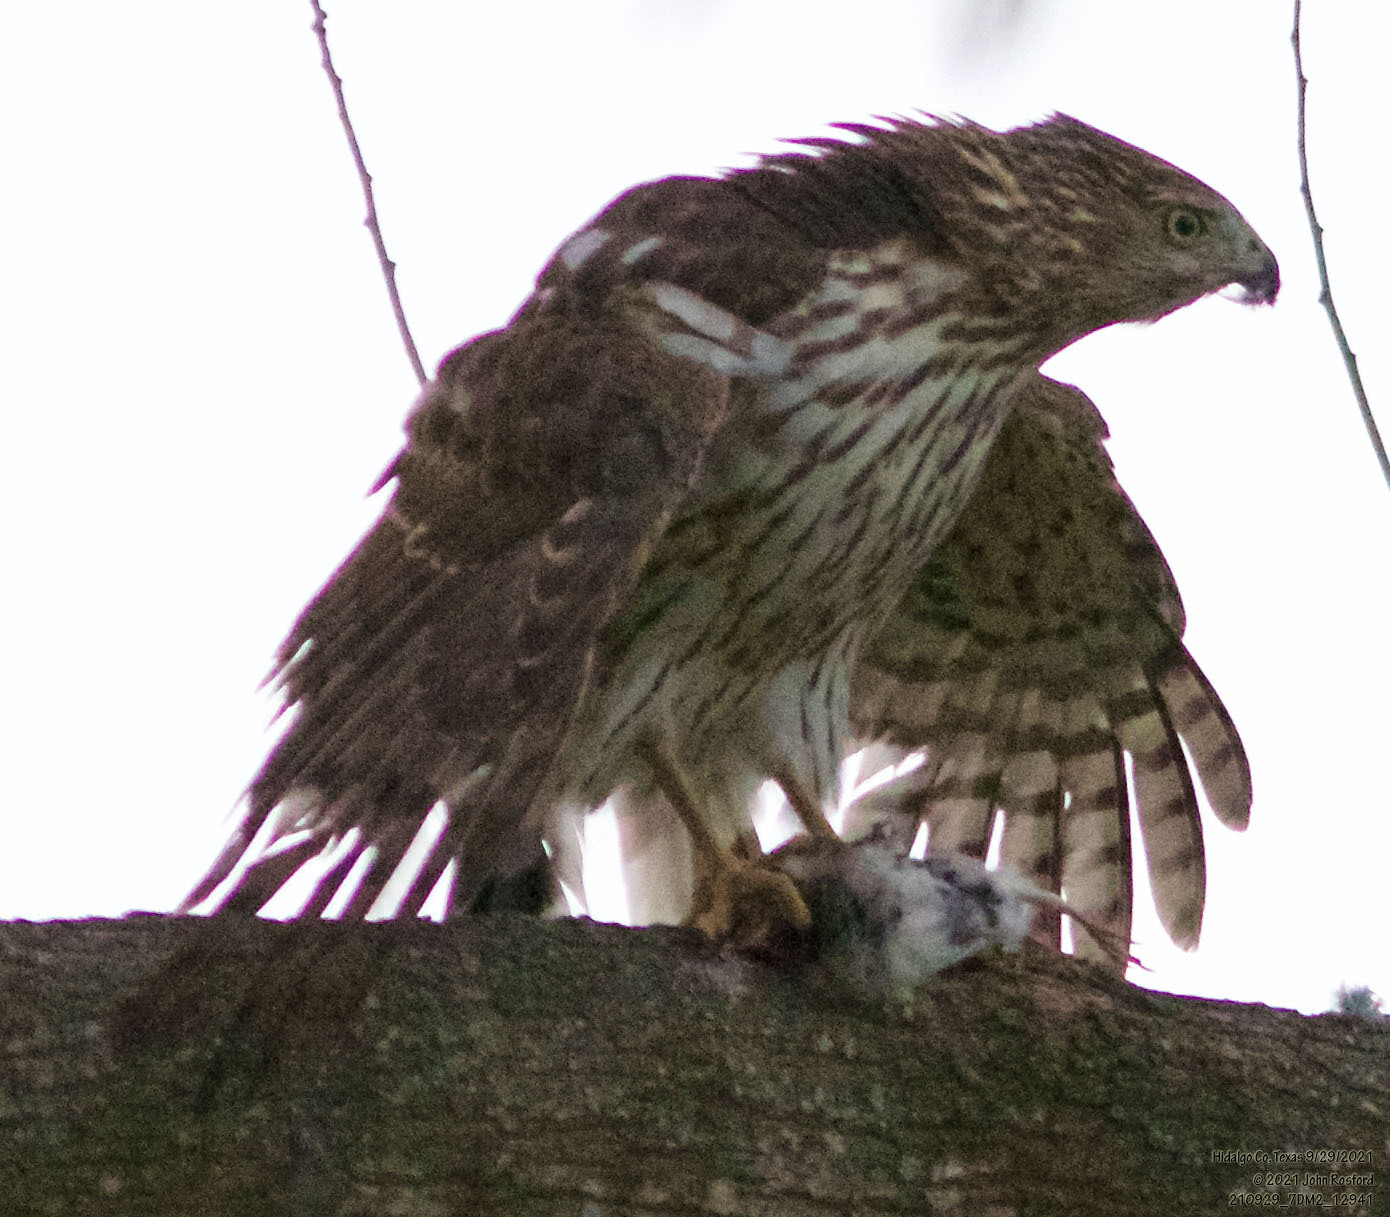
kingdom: Animalia
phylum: Chordata
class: Aves
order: Accipitriformes
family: Accipitridae
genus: Accipiter
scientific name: Accipiter cooperii
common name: Cooper's hawk
